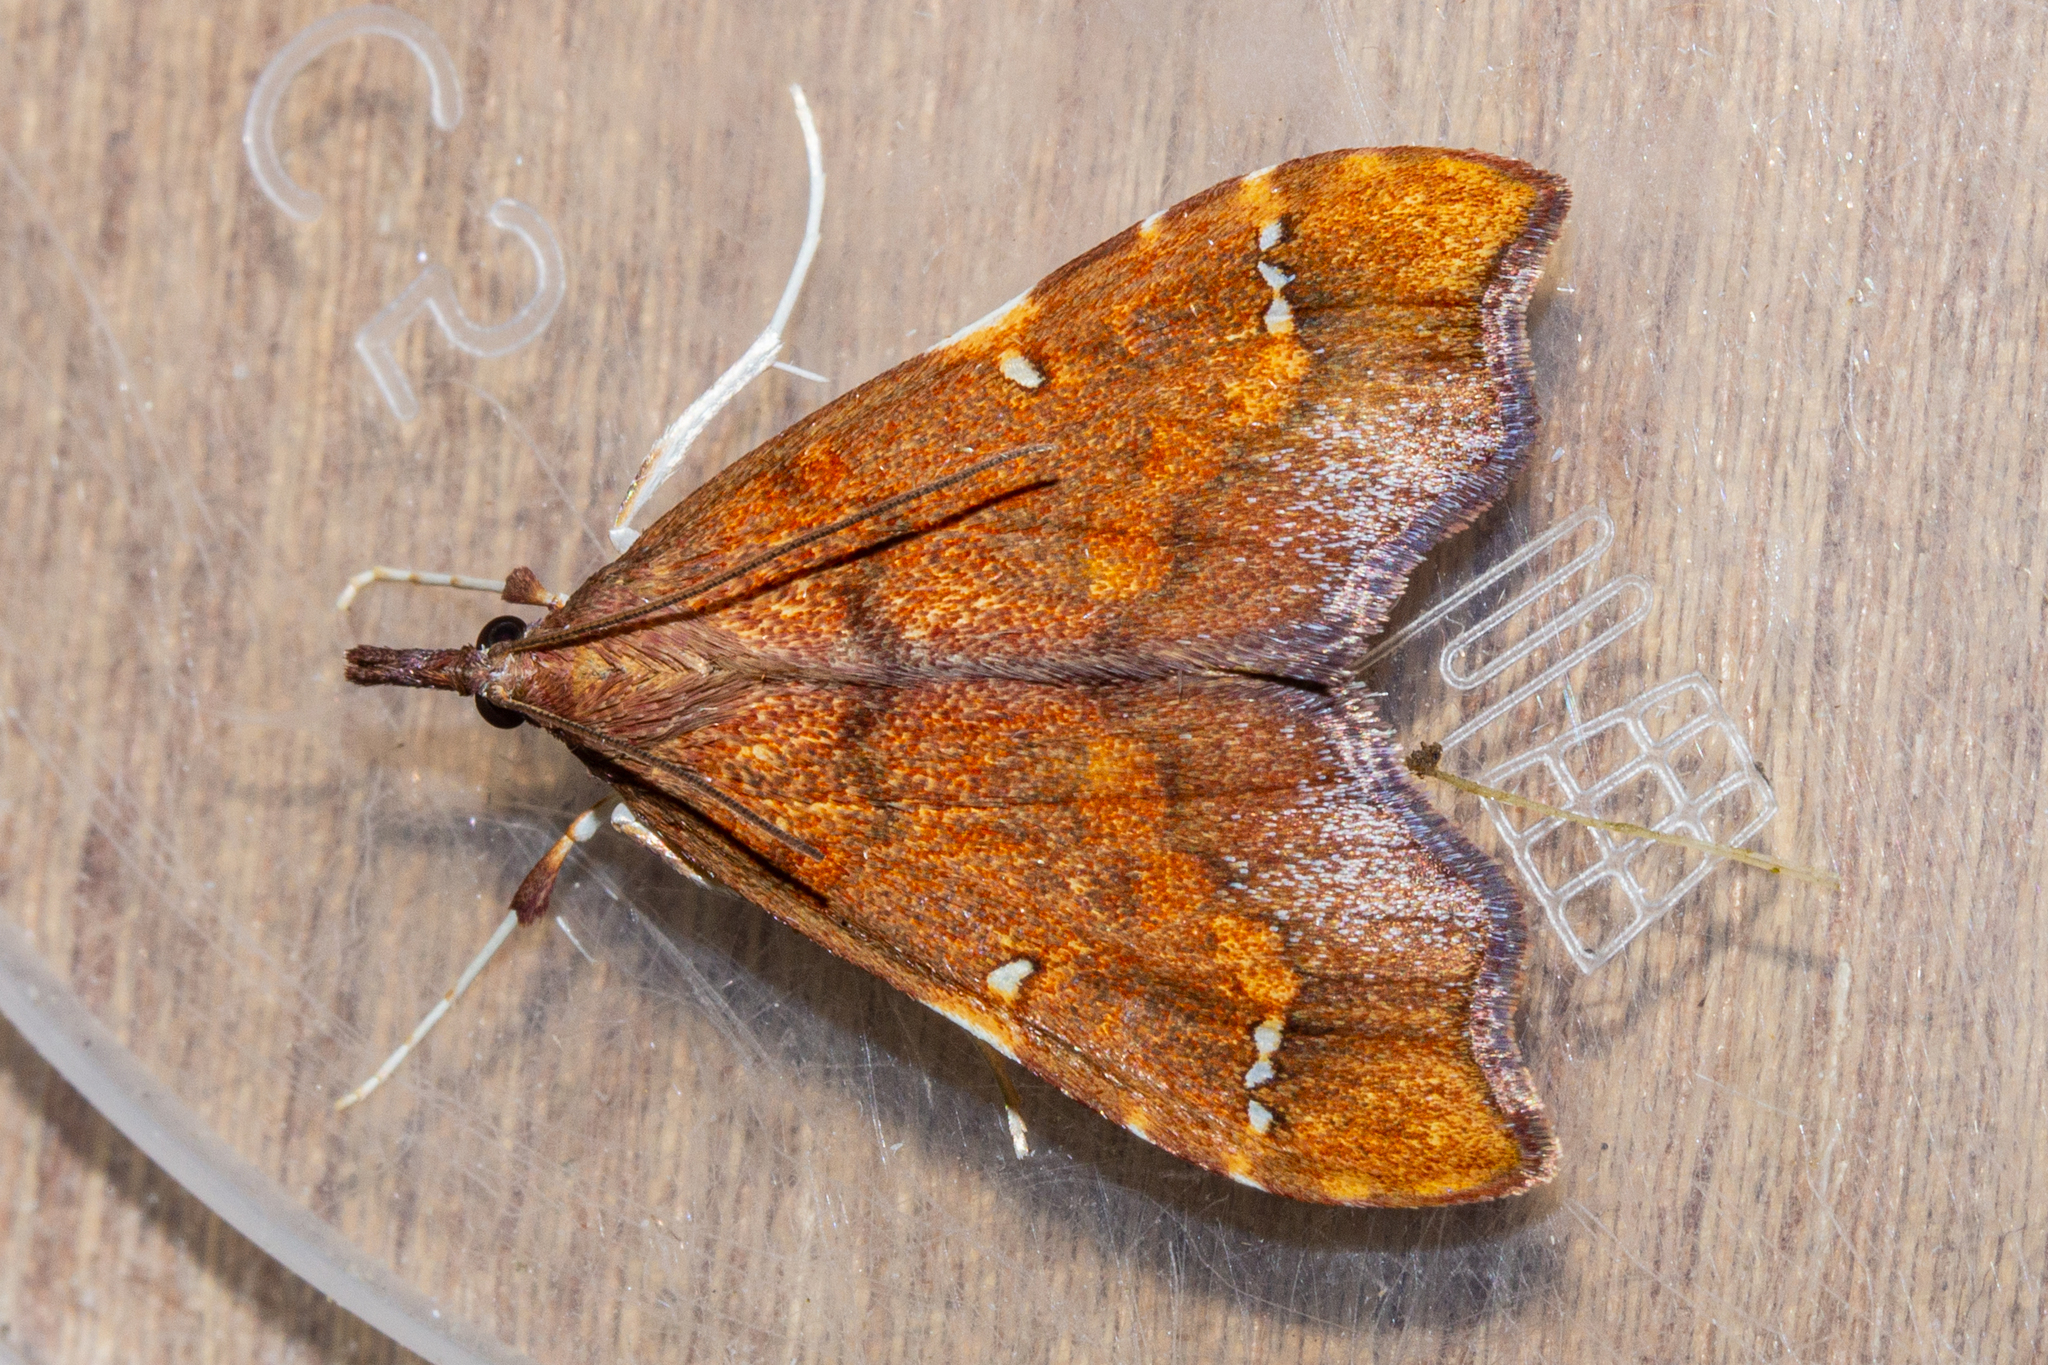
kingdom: Animalia
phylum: Arthropoda
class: Insecta
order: Lepidoptera
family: Crambidae
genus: Deana
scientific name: Deana hybreasalis
